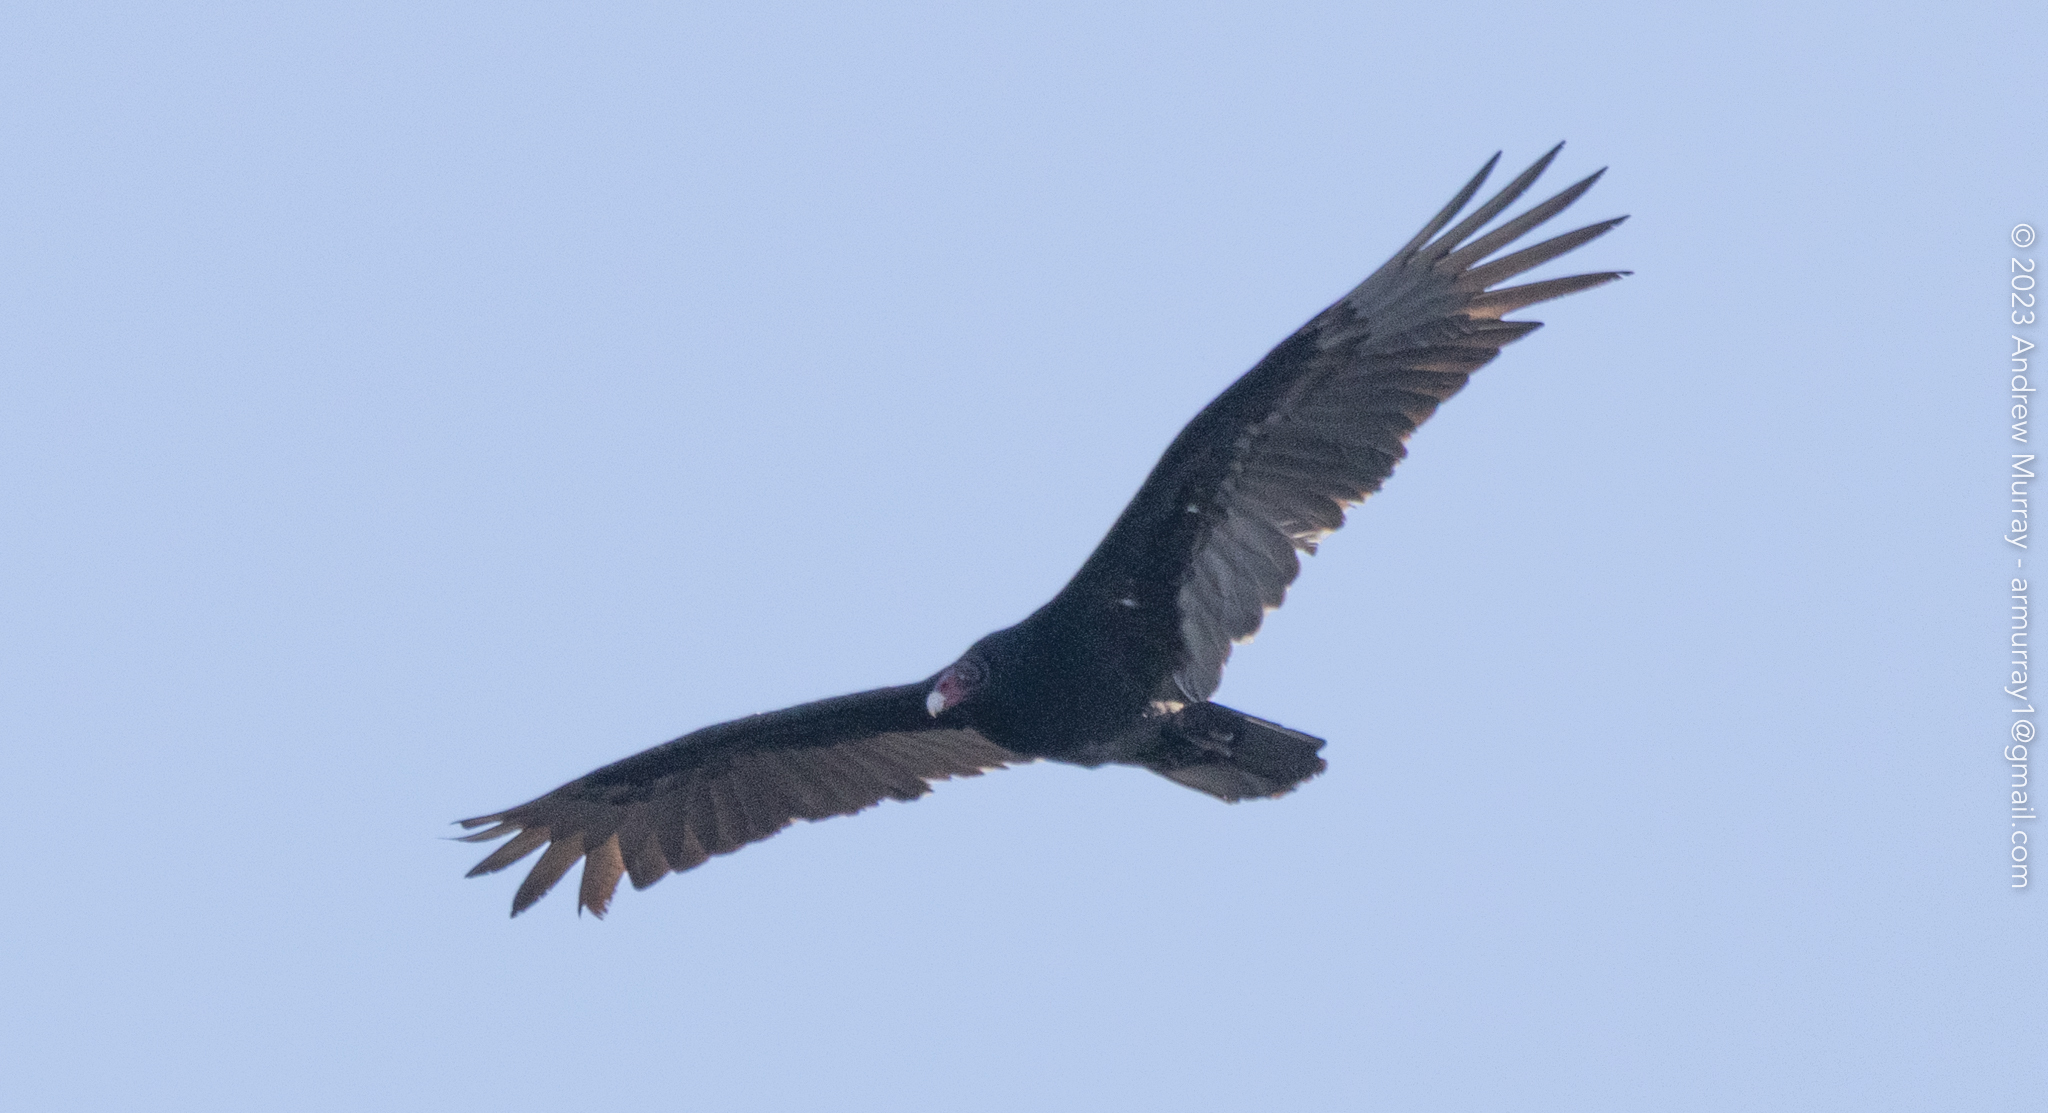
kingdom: Animalia
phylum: Chordata
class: Aves
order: Accipitriformes
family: Cathartidae
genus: Cathartes
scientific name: Cathartes aura
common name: Turkey vulture
